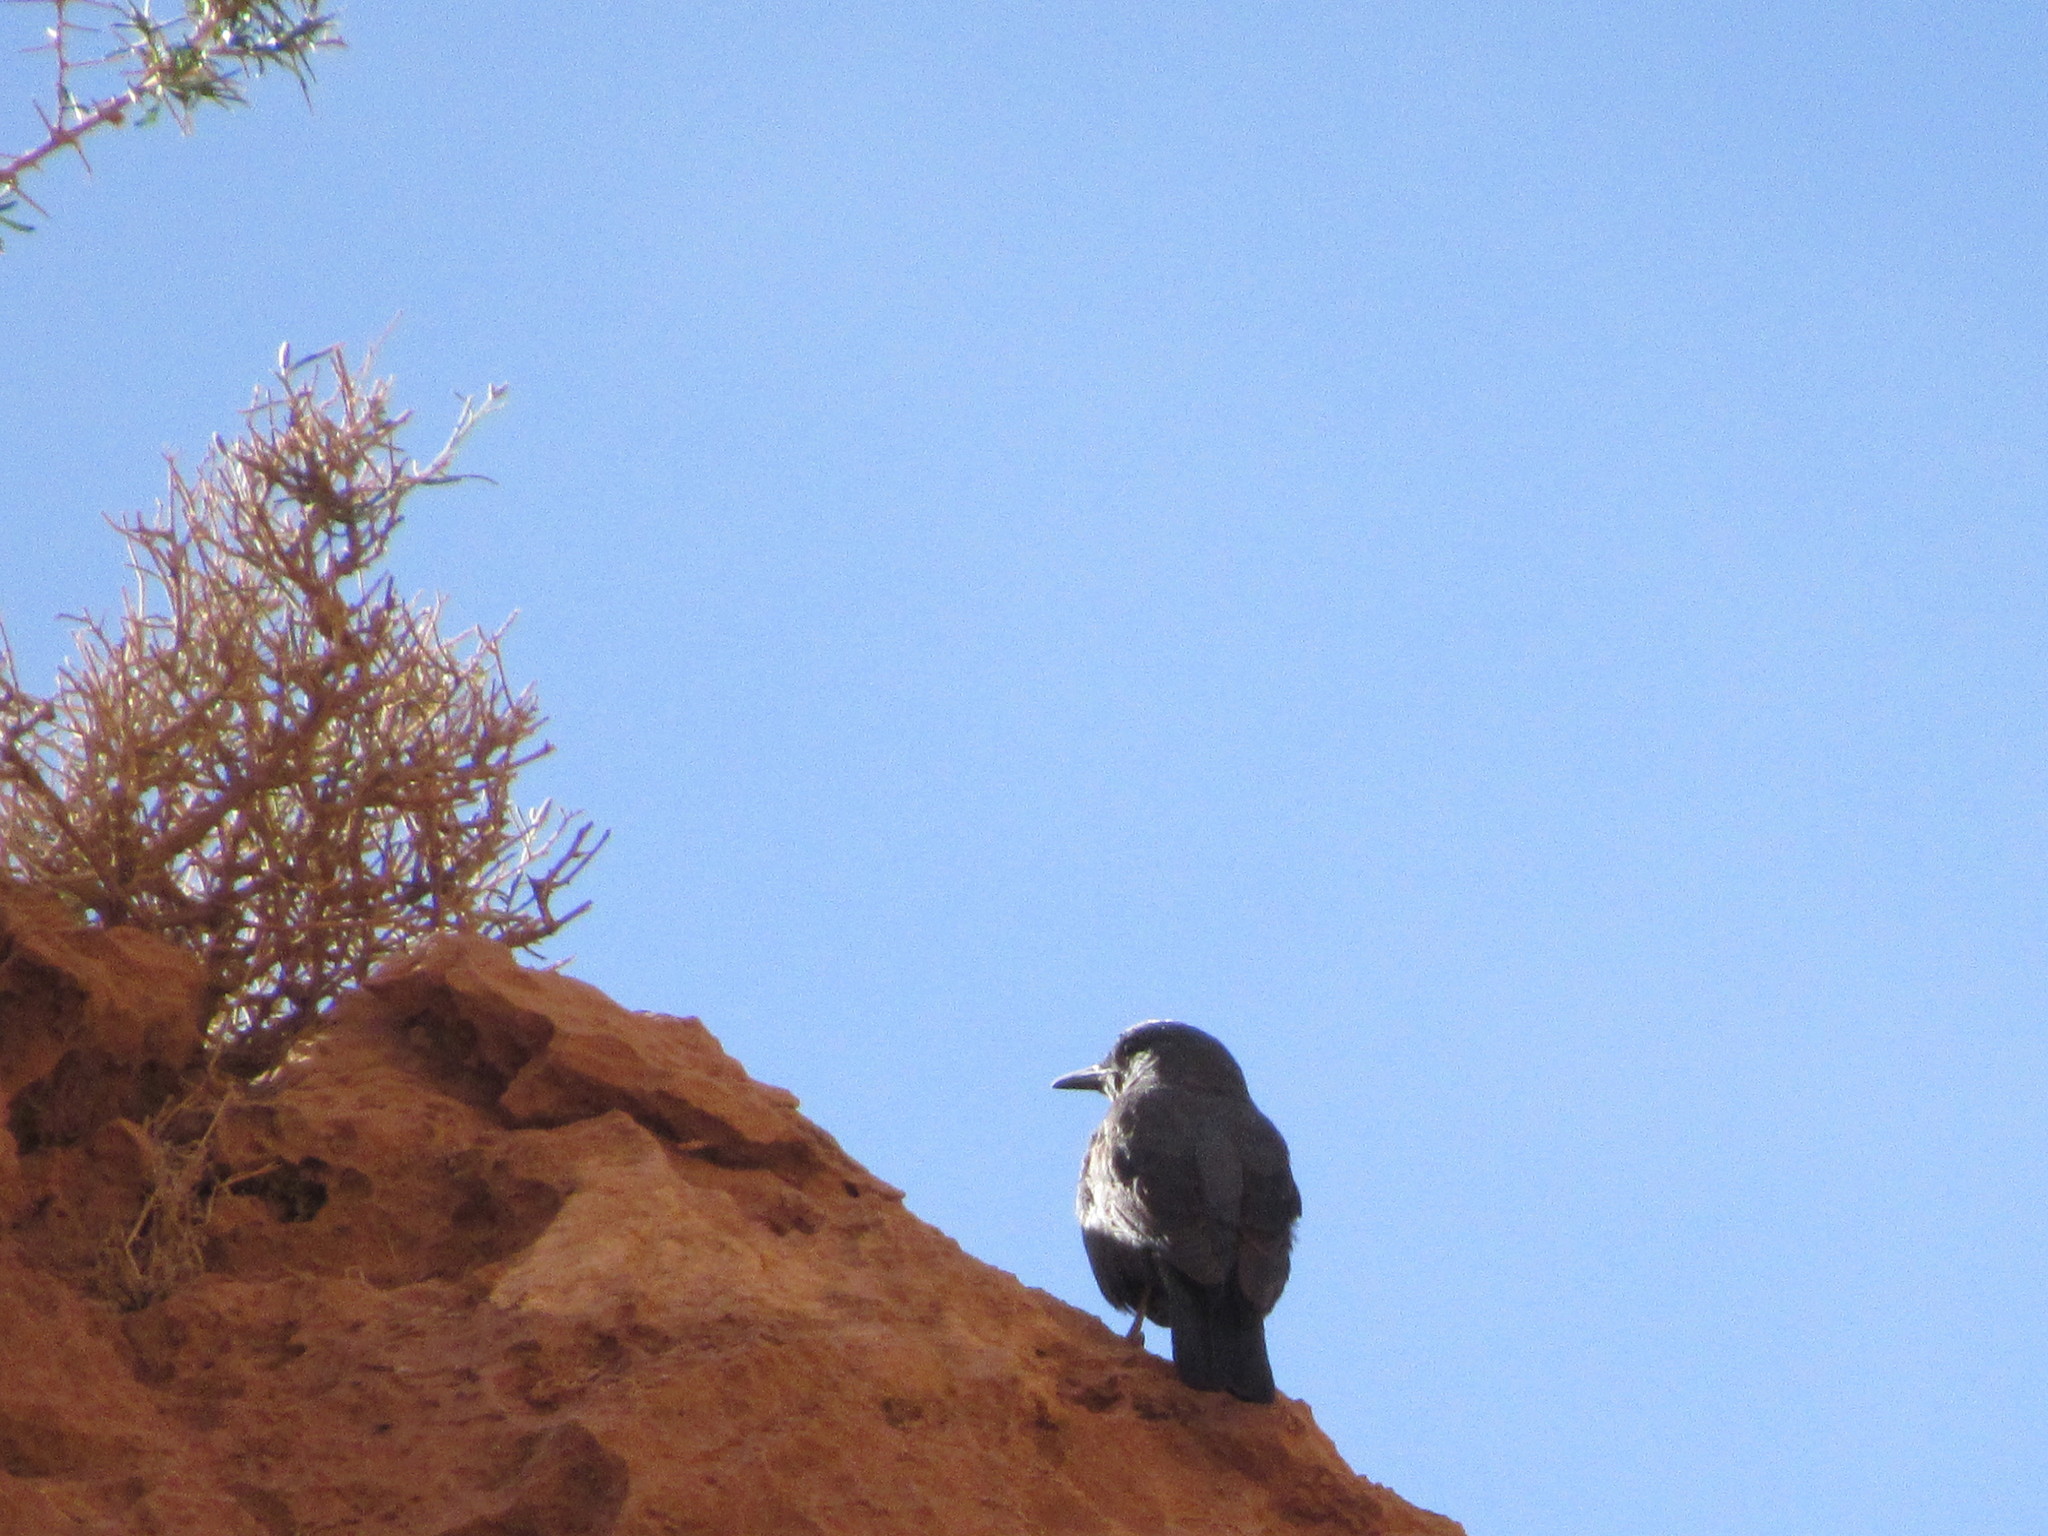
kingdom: Animalia
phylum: Chordata
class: Aves
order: Passeriformes
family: Muscicapidae
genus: Monticola
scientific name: Monticola solitarius
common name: Blue rock thrush
